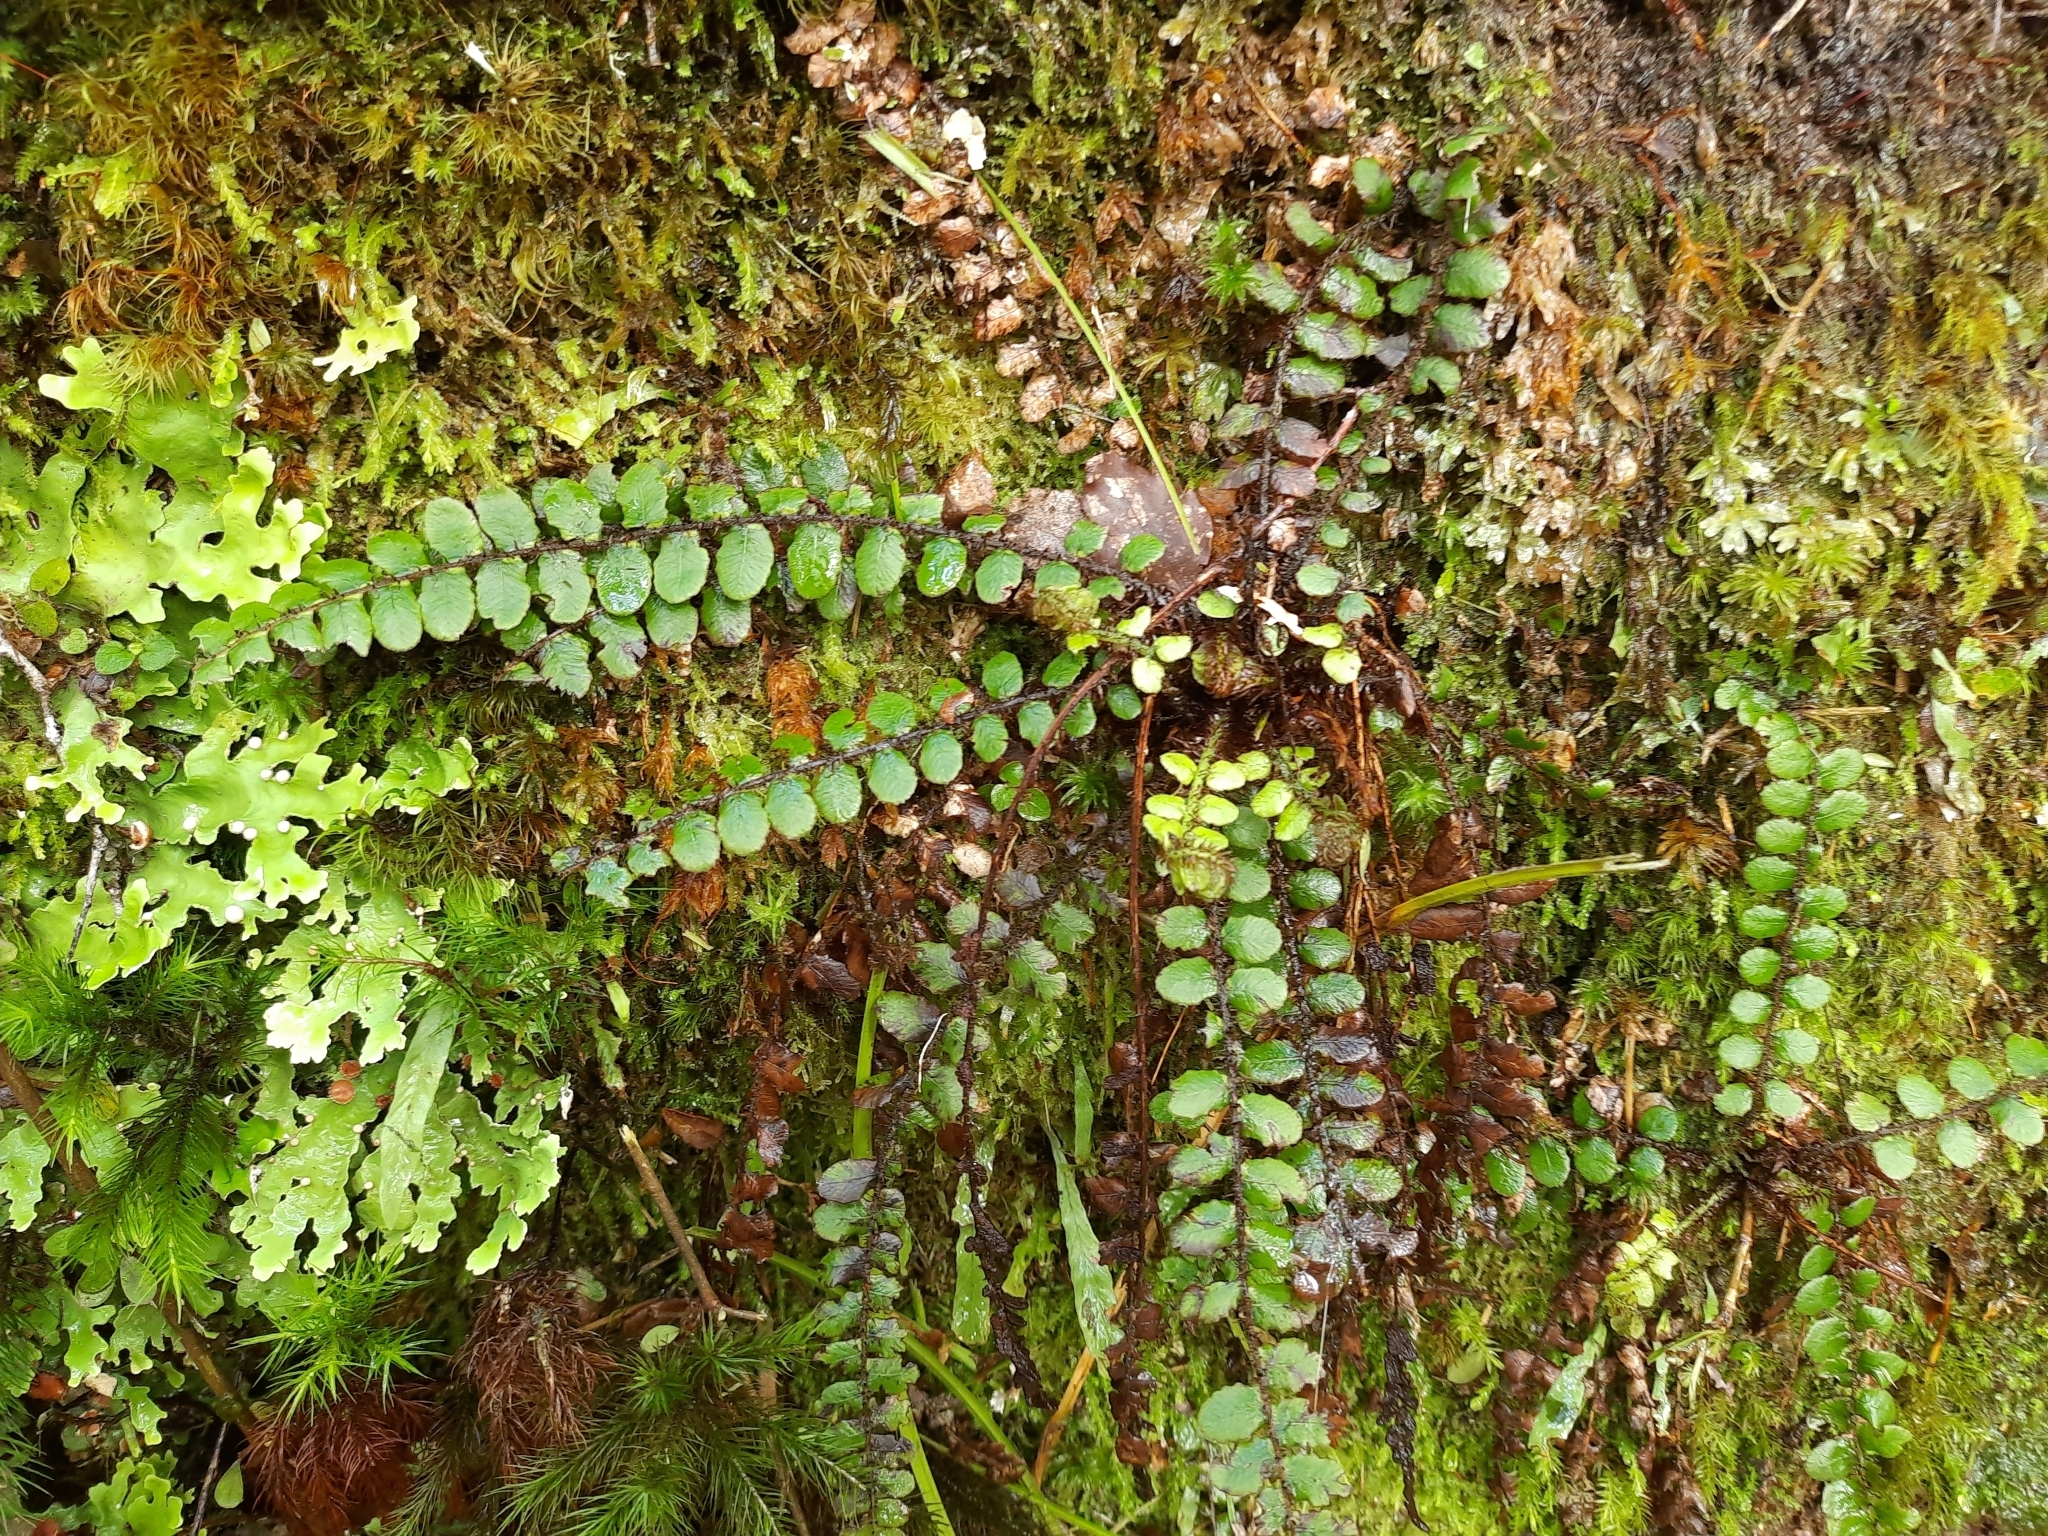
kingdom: Plantae
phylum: Tracheophyta
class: Polypodiopsida
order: Polypodiales
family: Blechnaceae
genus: Cranfillia
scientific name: Cranfillia fluviatilis
